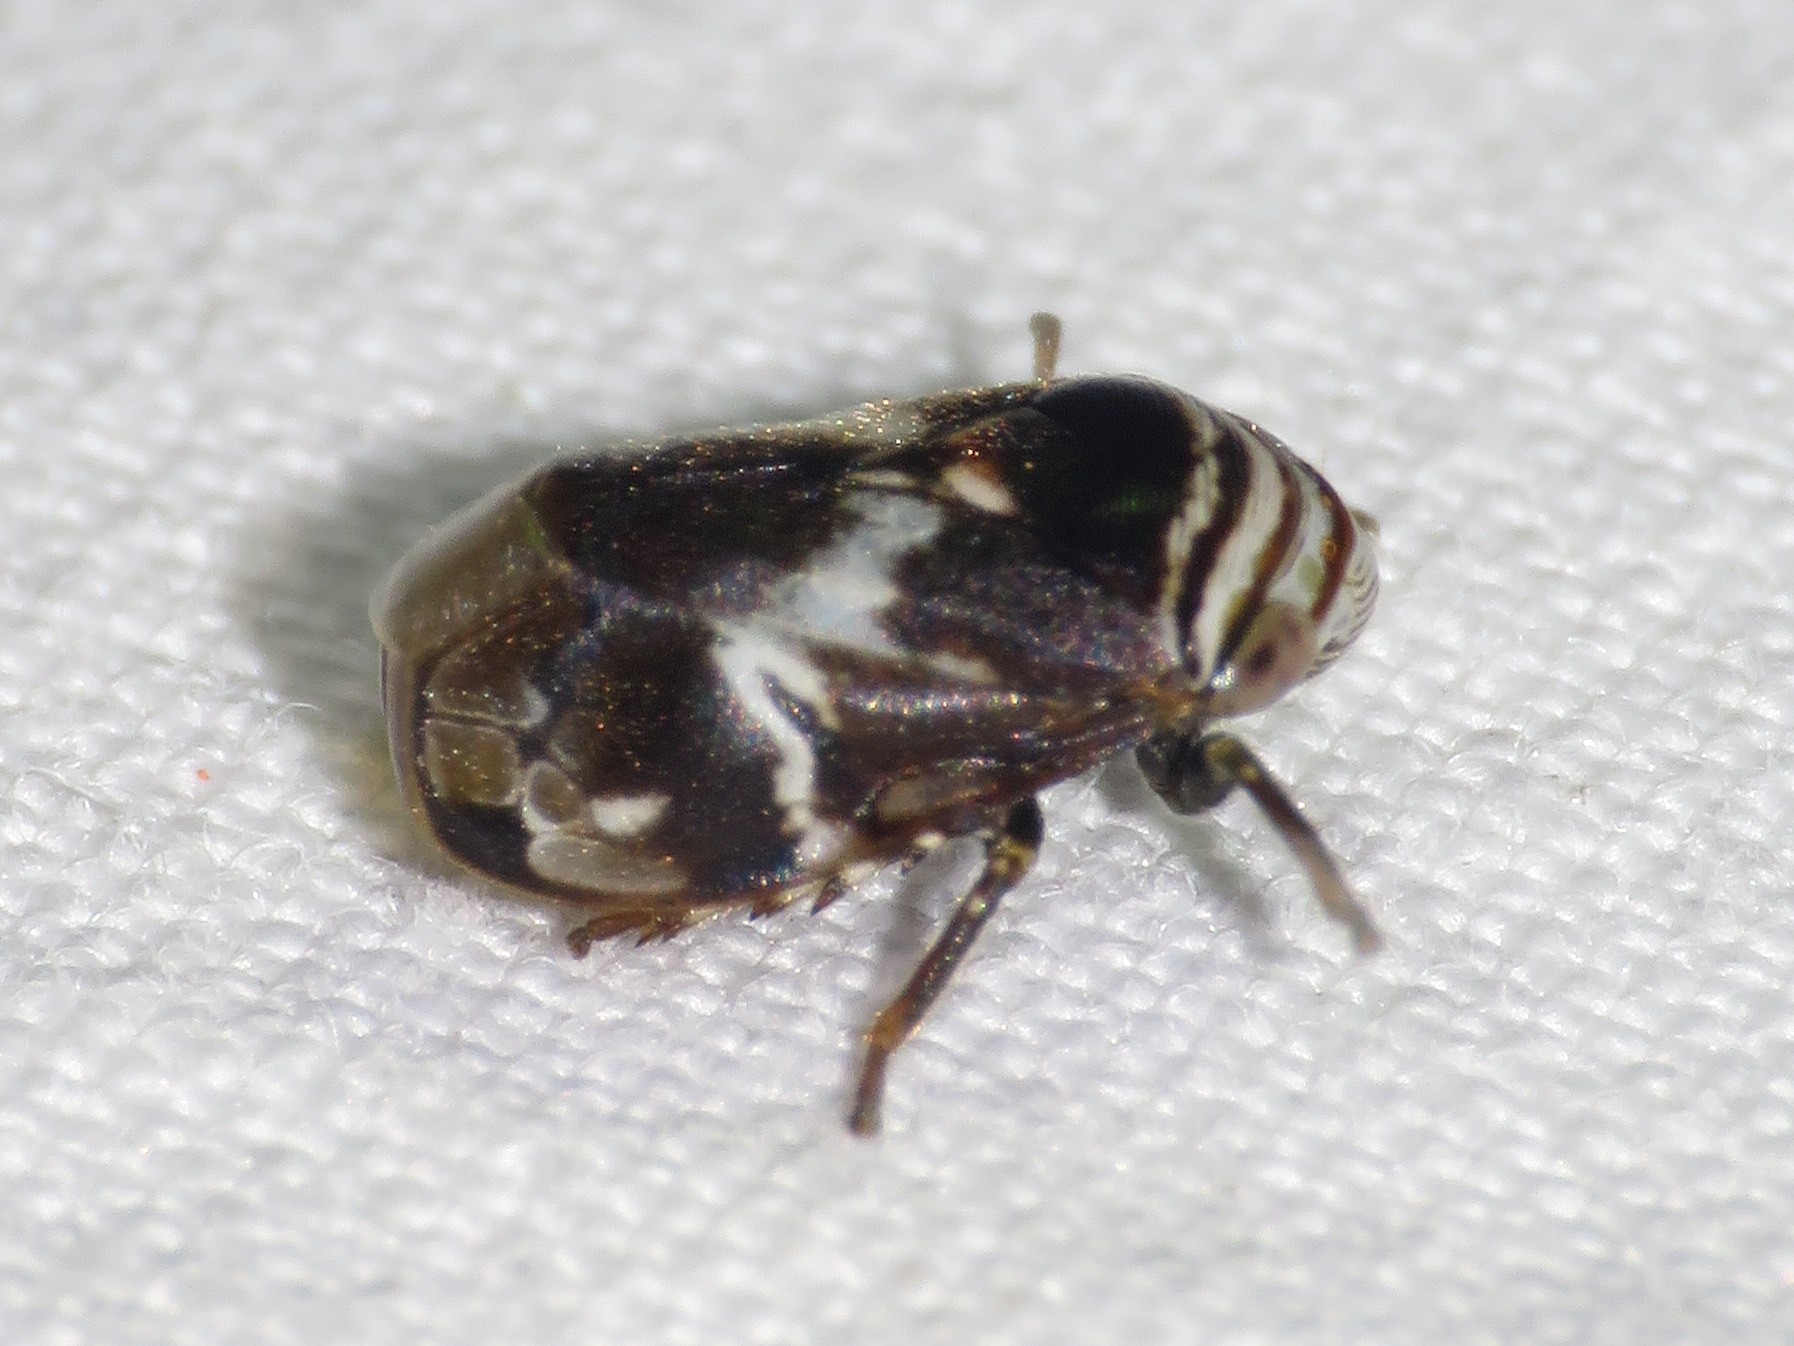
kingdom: Animalia
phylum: Arthropoda
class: Insecta
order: Hemiptera
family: Clastopteridae
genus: Clastoptera
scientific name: Clastoptera obtusa
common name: Alder spittlebug
